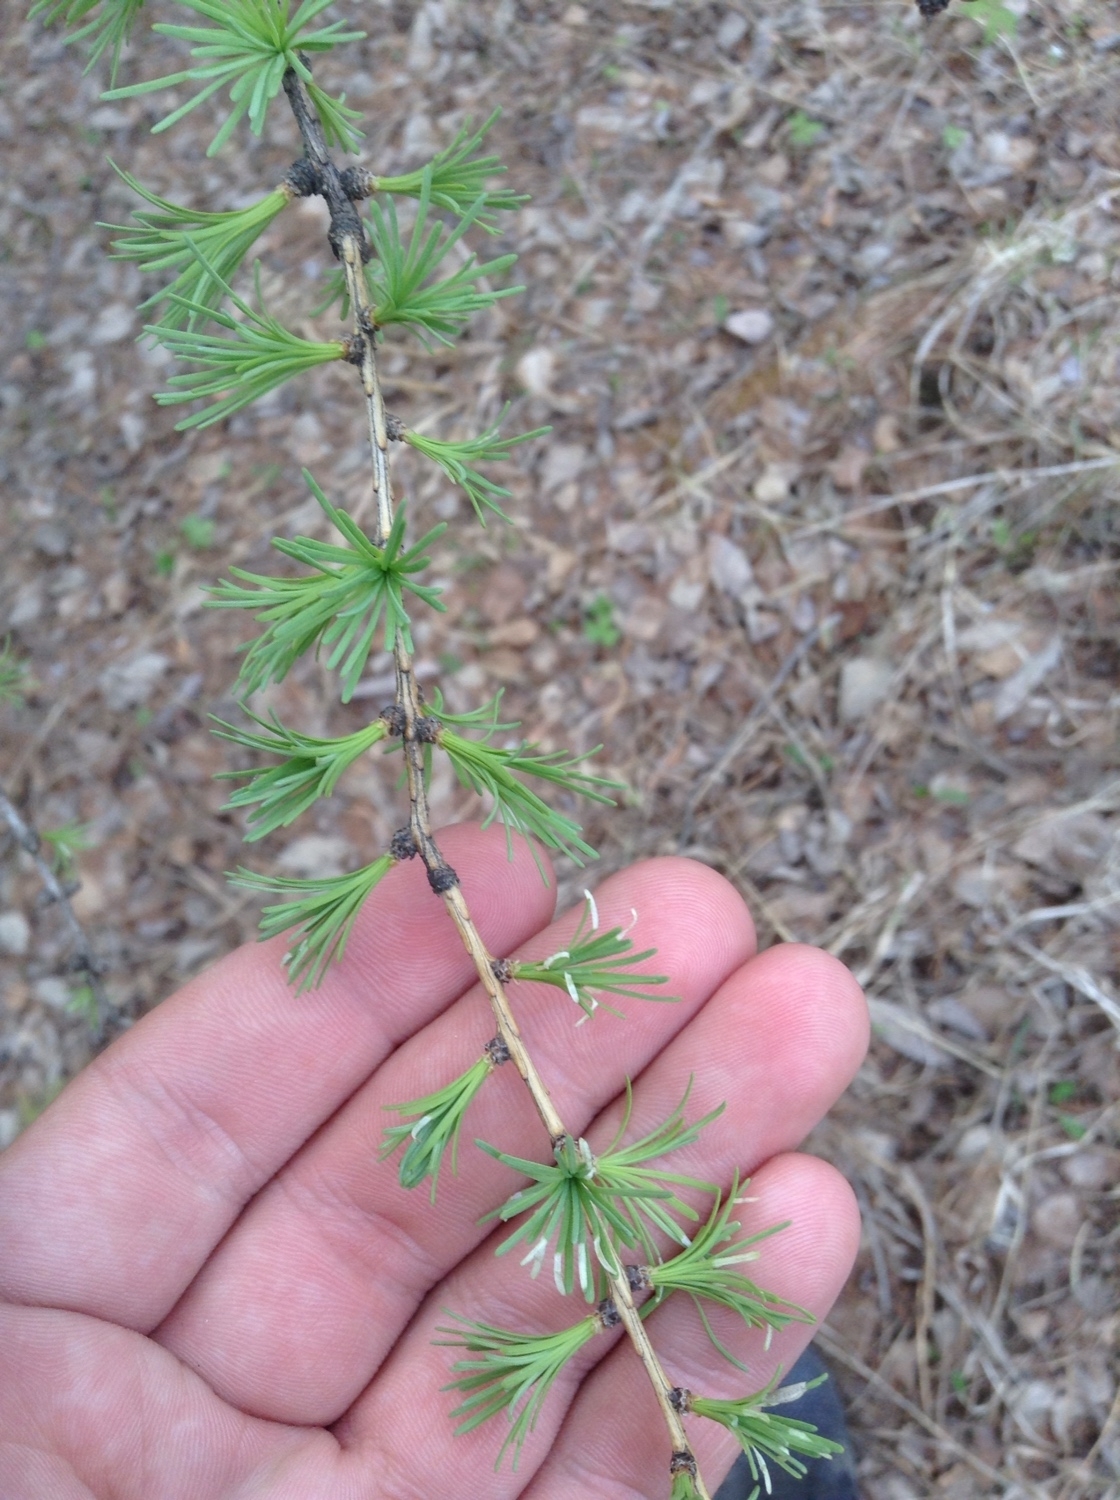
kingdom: Plantae
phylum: Tracheophyta
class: Pinopsida
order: Pinales
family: Pinaceae
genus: Larix
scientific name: Larix sibirica
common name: Siberian larch
